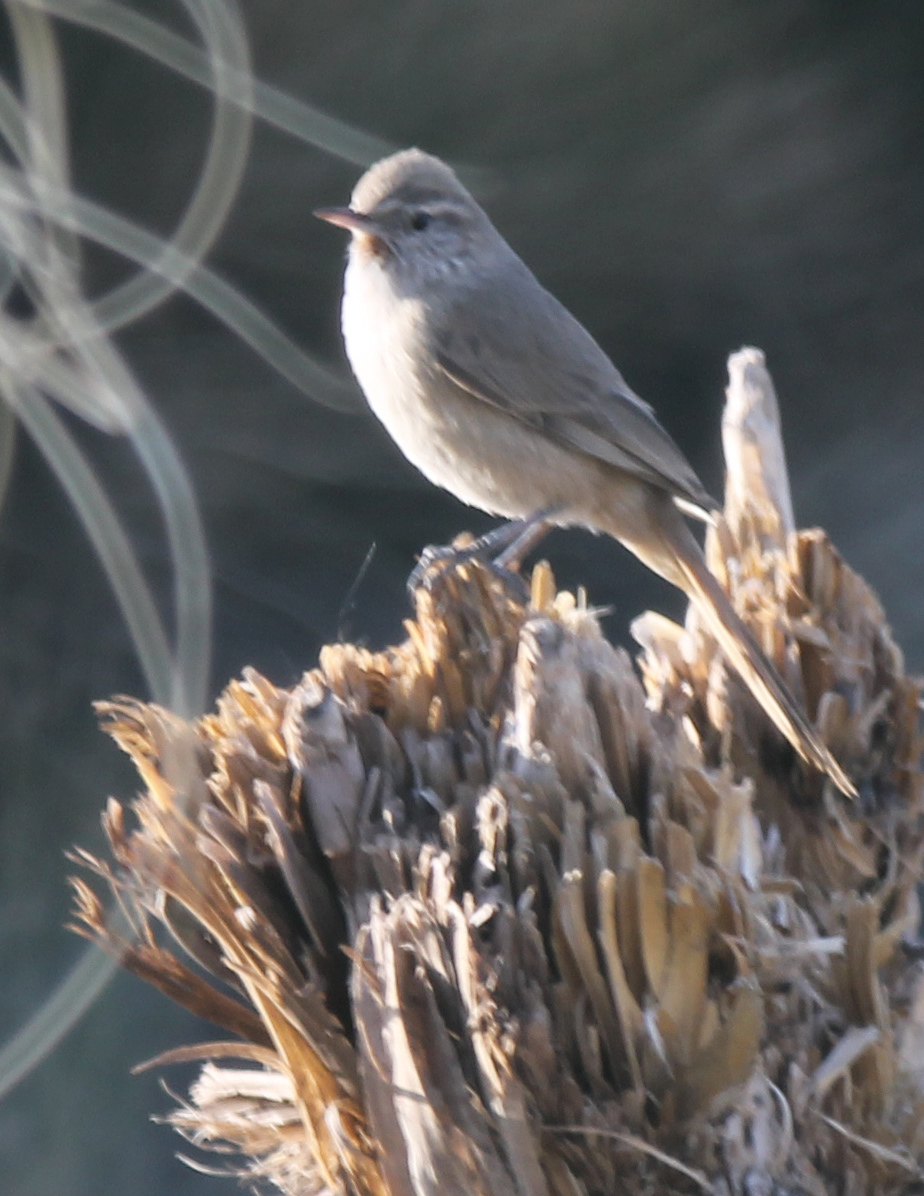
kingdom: Animalia
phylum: Chordata
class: Aves
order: Passeriformes
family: Furnariidae
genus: Asthenes
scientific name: Asthenes modesta
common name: Cordilleran canastero
